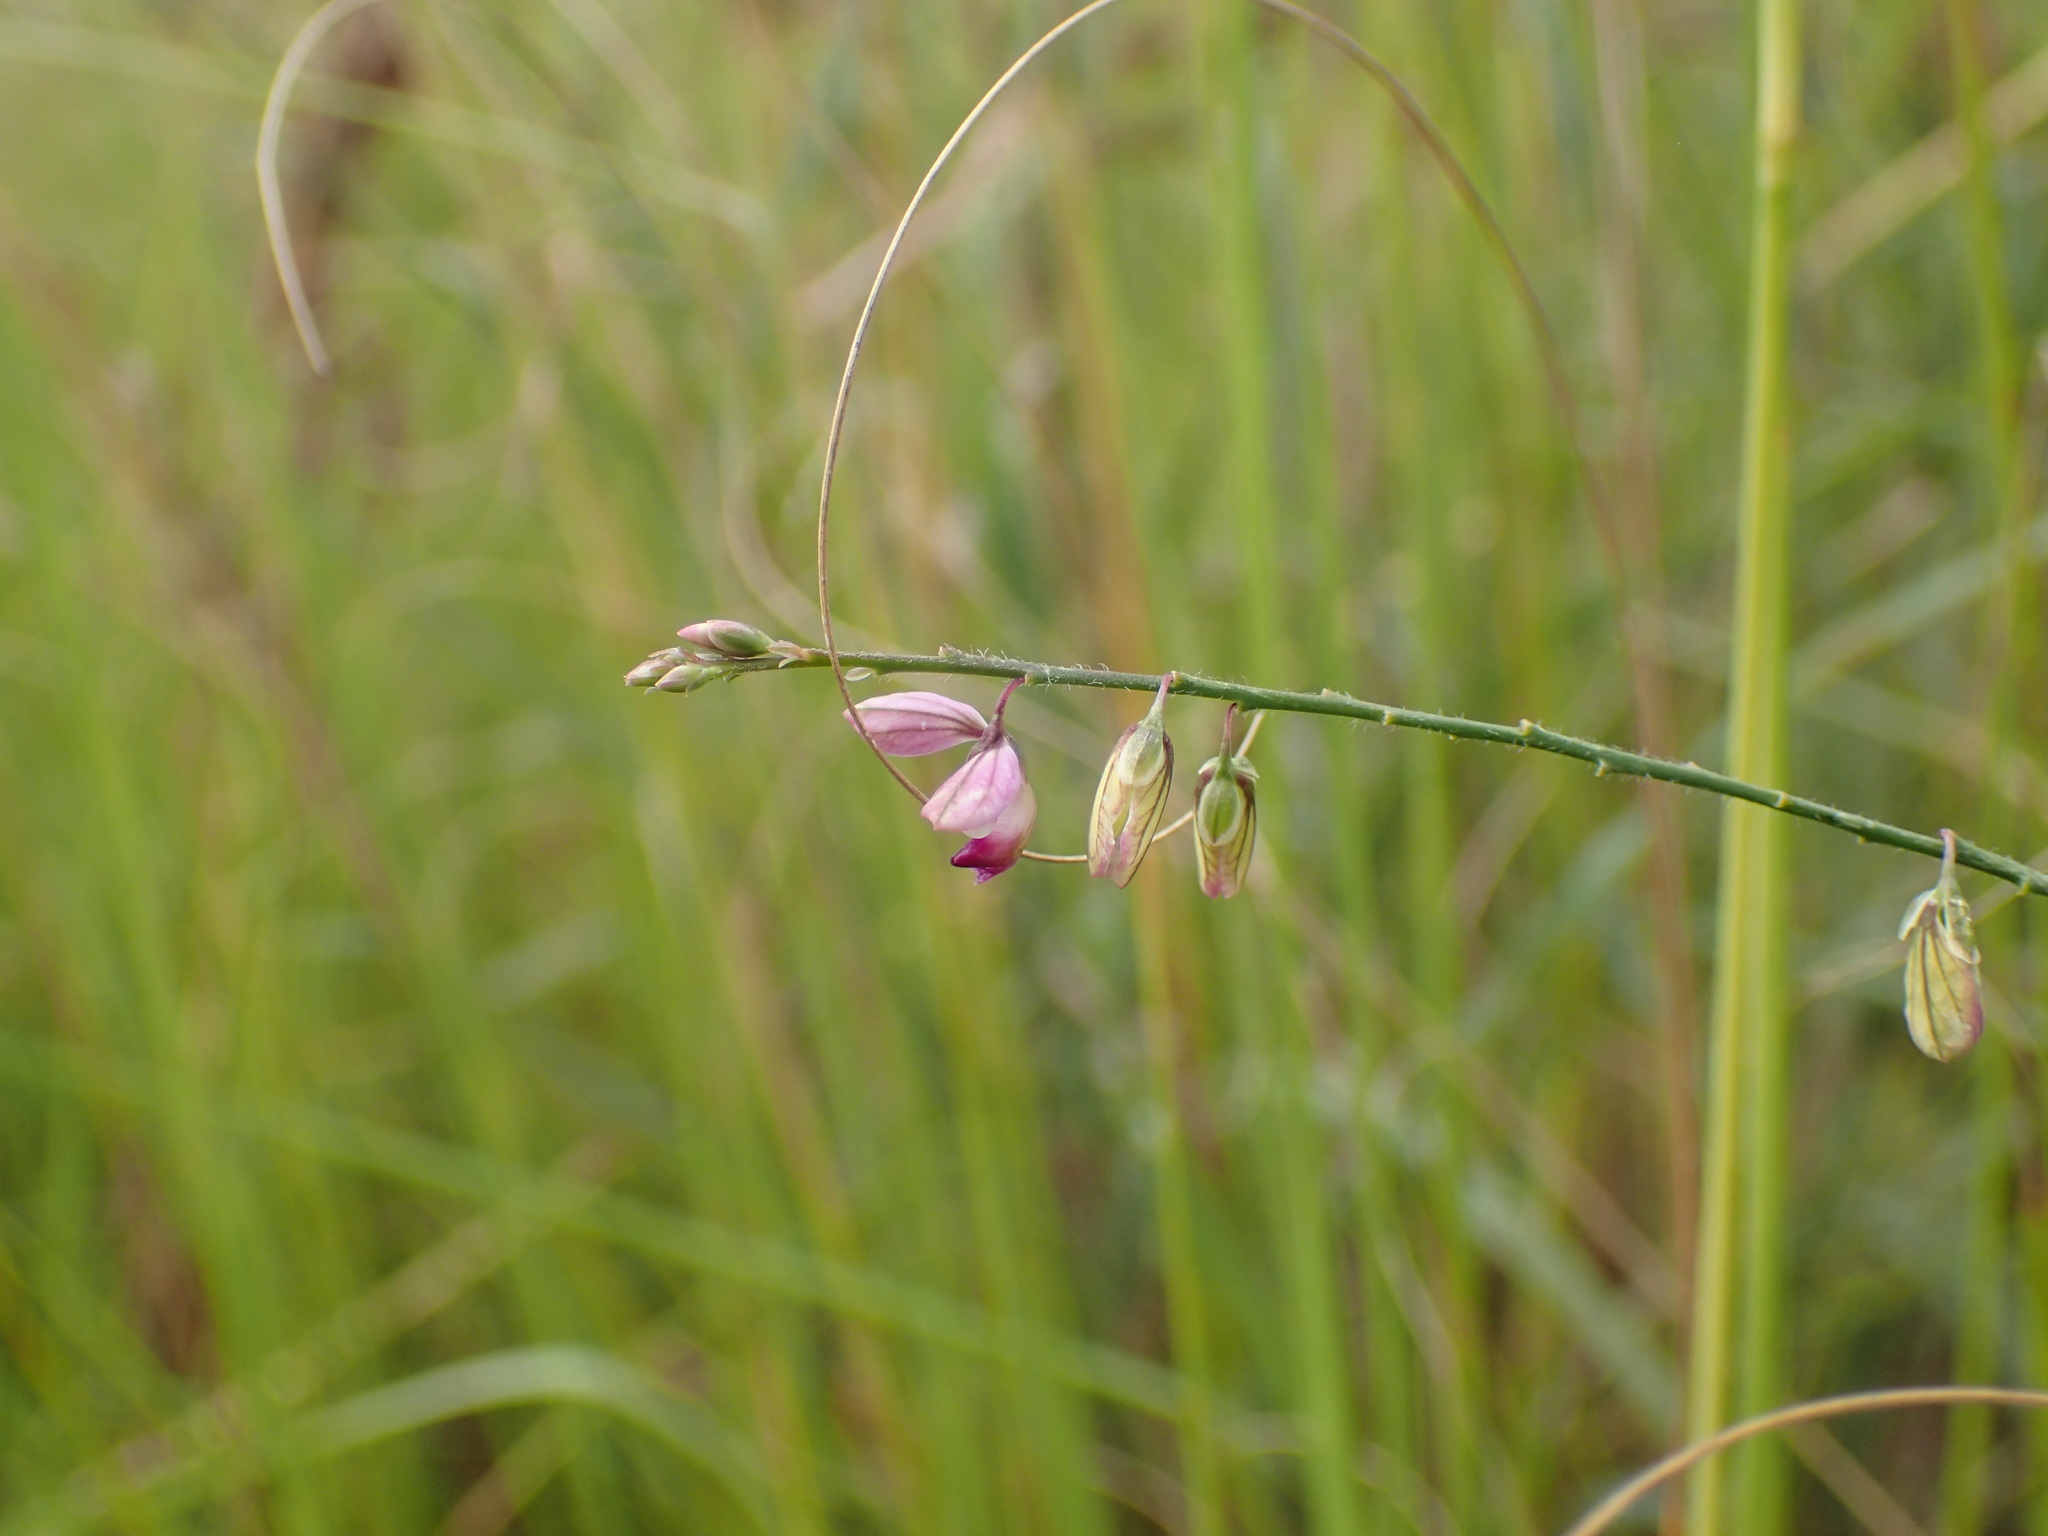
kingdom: Plantae
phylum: Tracheophyta
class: Magnoliopsida
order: Fabales
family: Polygalaceae
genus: Polygala
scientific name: Polygala hottentotta
